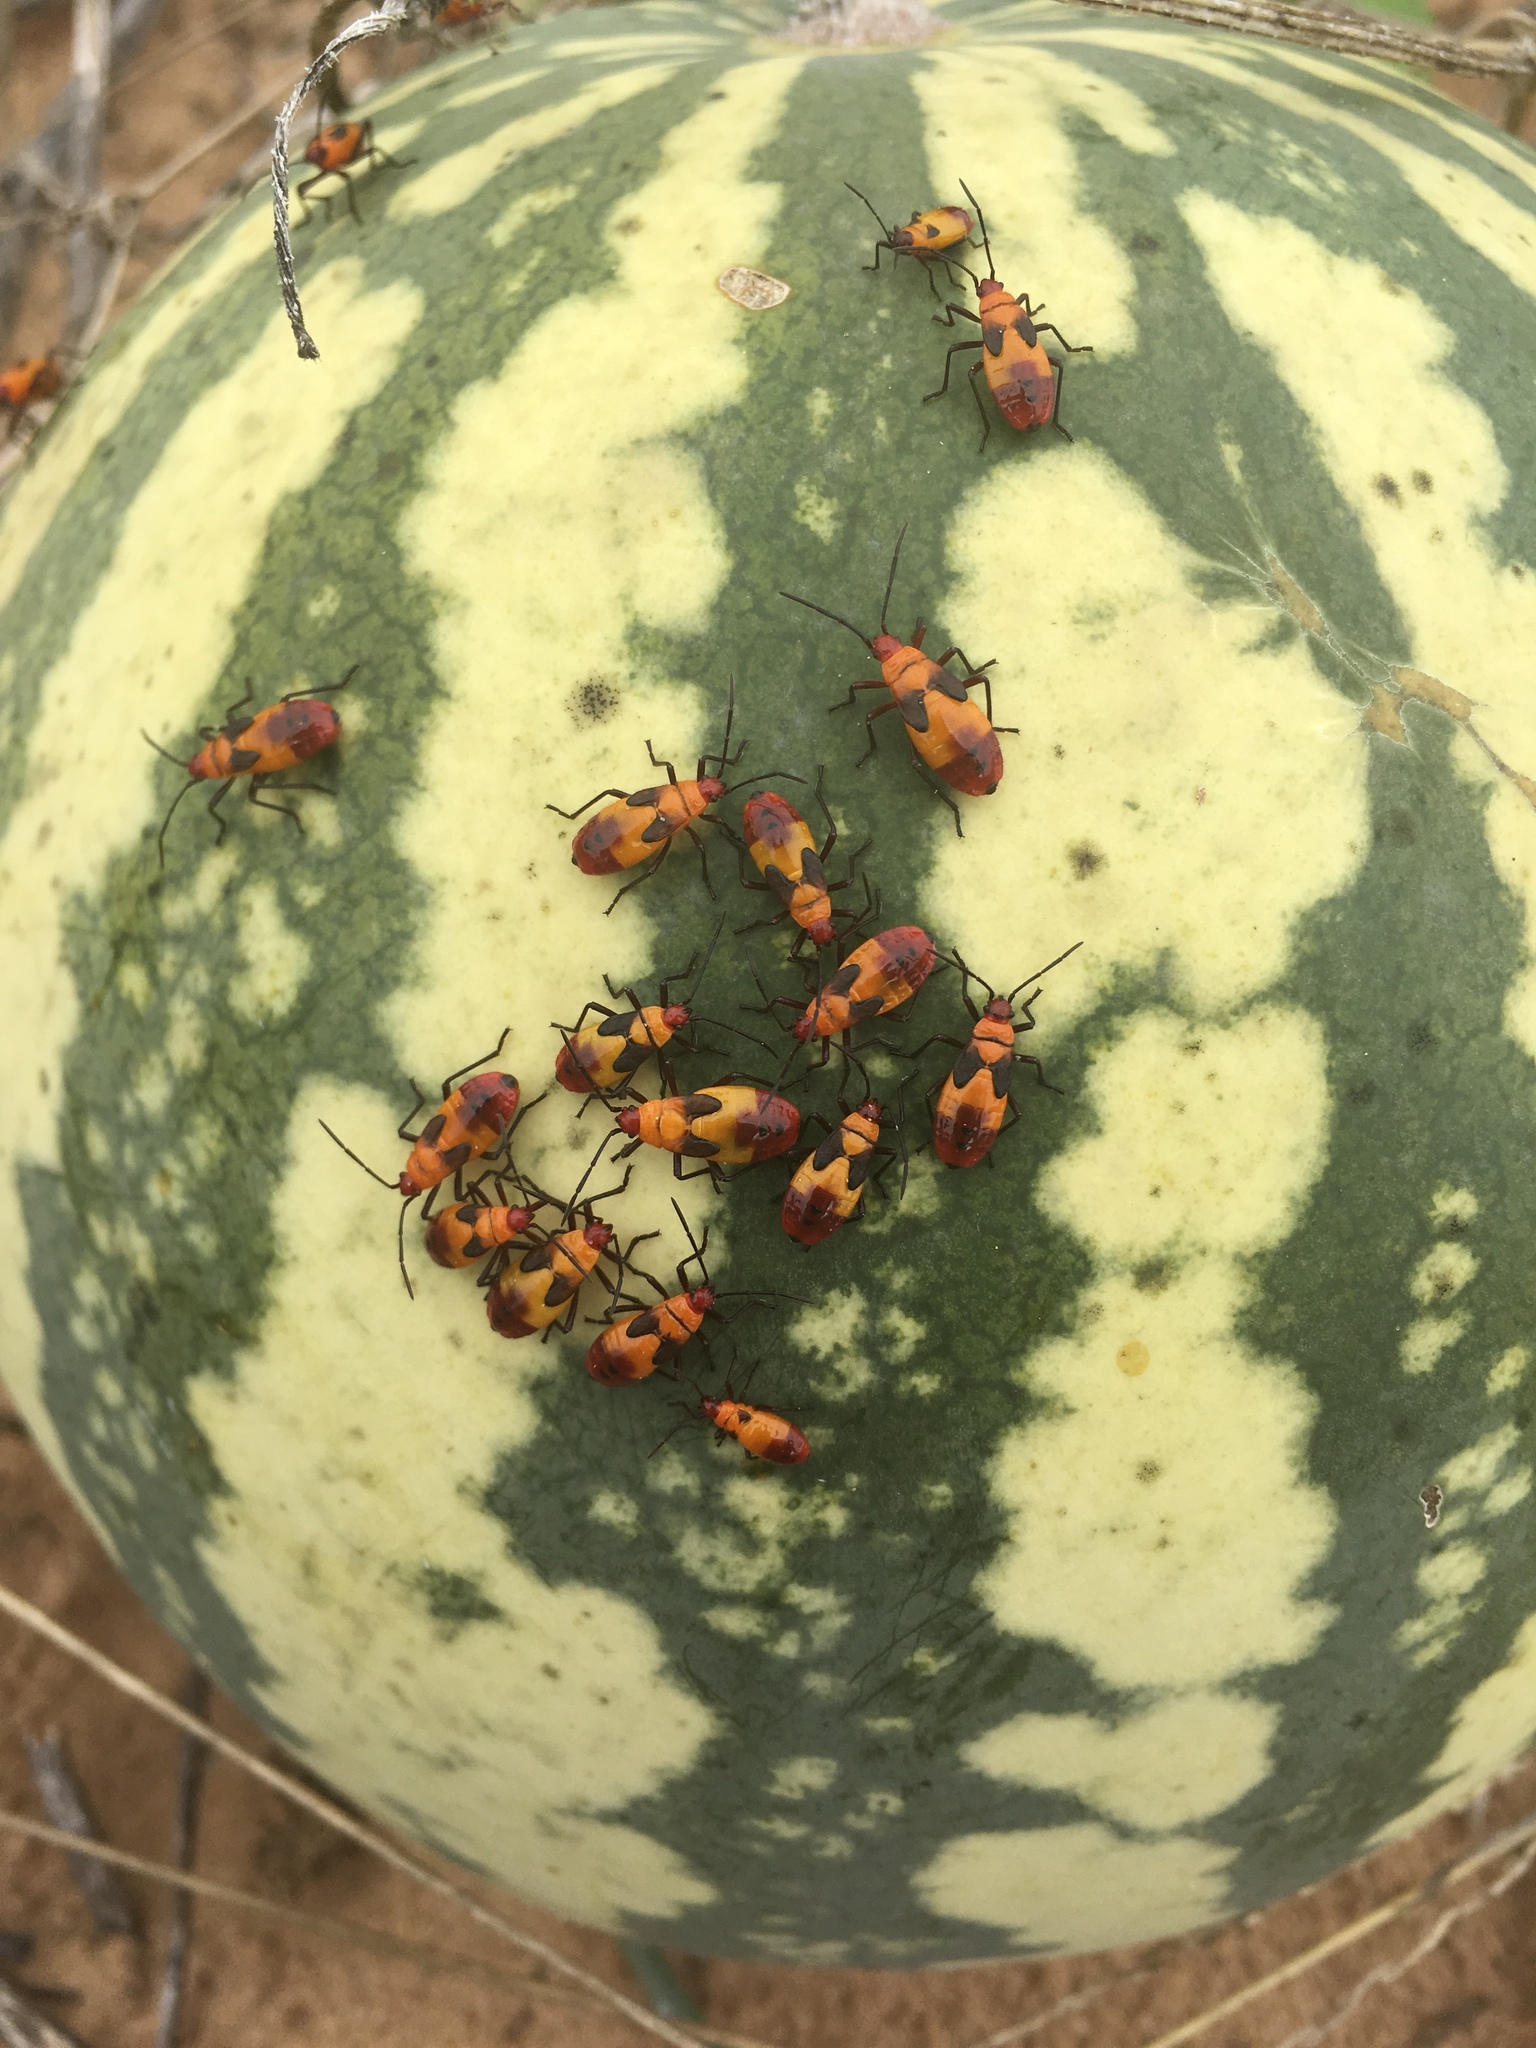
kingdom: Animalia
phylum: Arthropoda
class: Insecta
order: Hemiptera
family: Lygaeidae
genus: Oncopeltus
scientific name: Oncopeltus sexmaculatus
